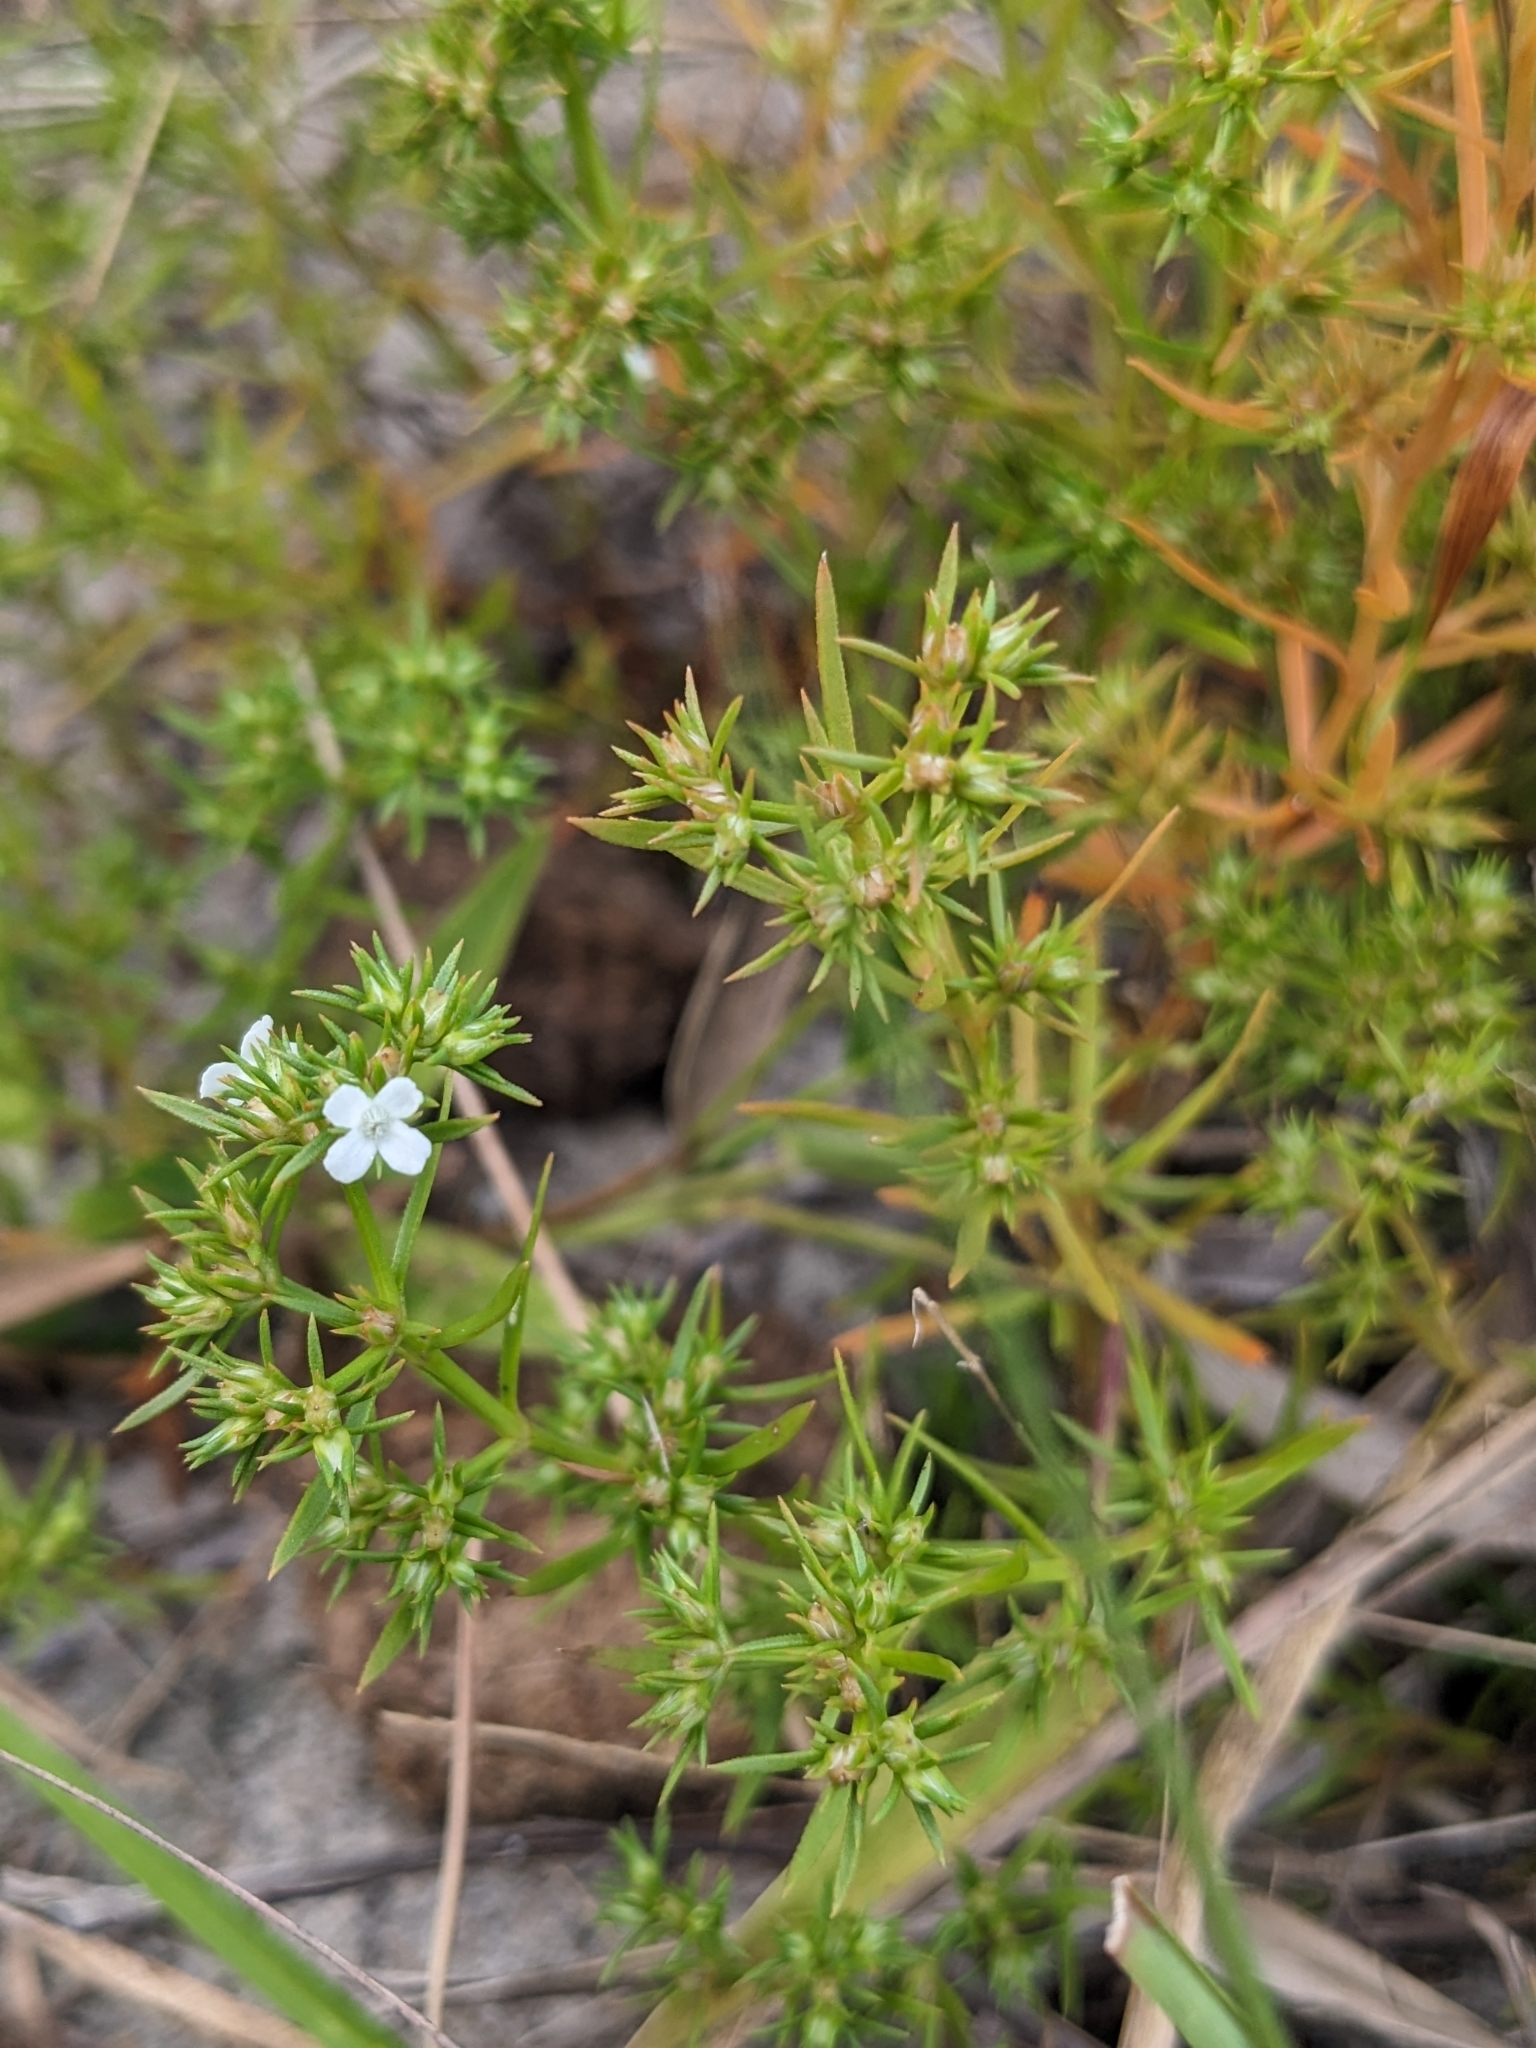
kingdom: Plantae
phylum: Tracheophyta
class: Magnoliopsida
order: Lamiales
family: Tetrachondraceae
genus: Polypremum
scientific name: Polypremum procumbens
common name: Juniper-leaf
